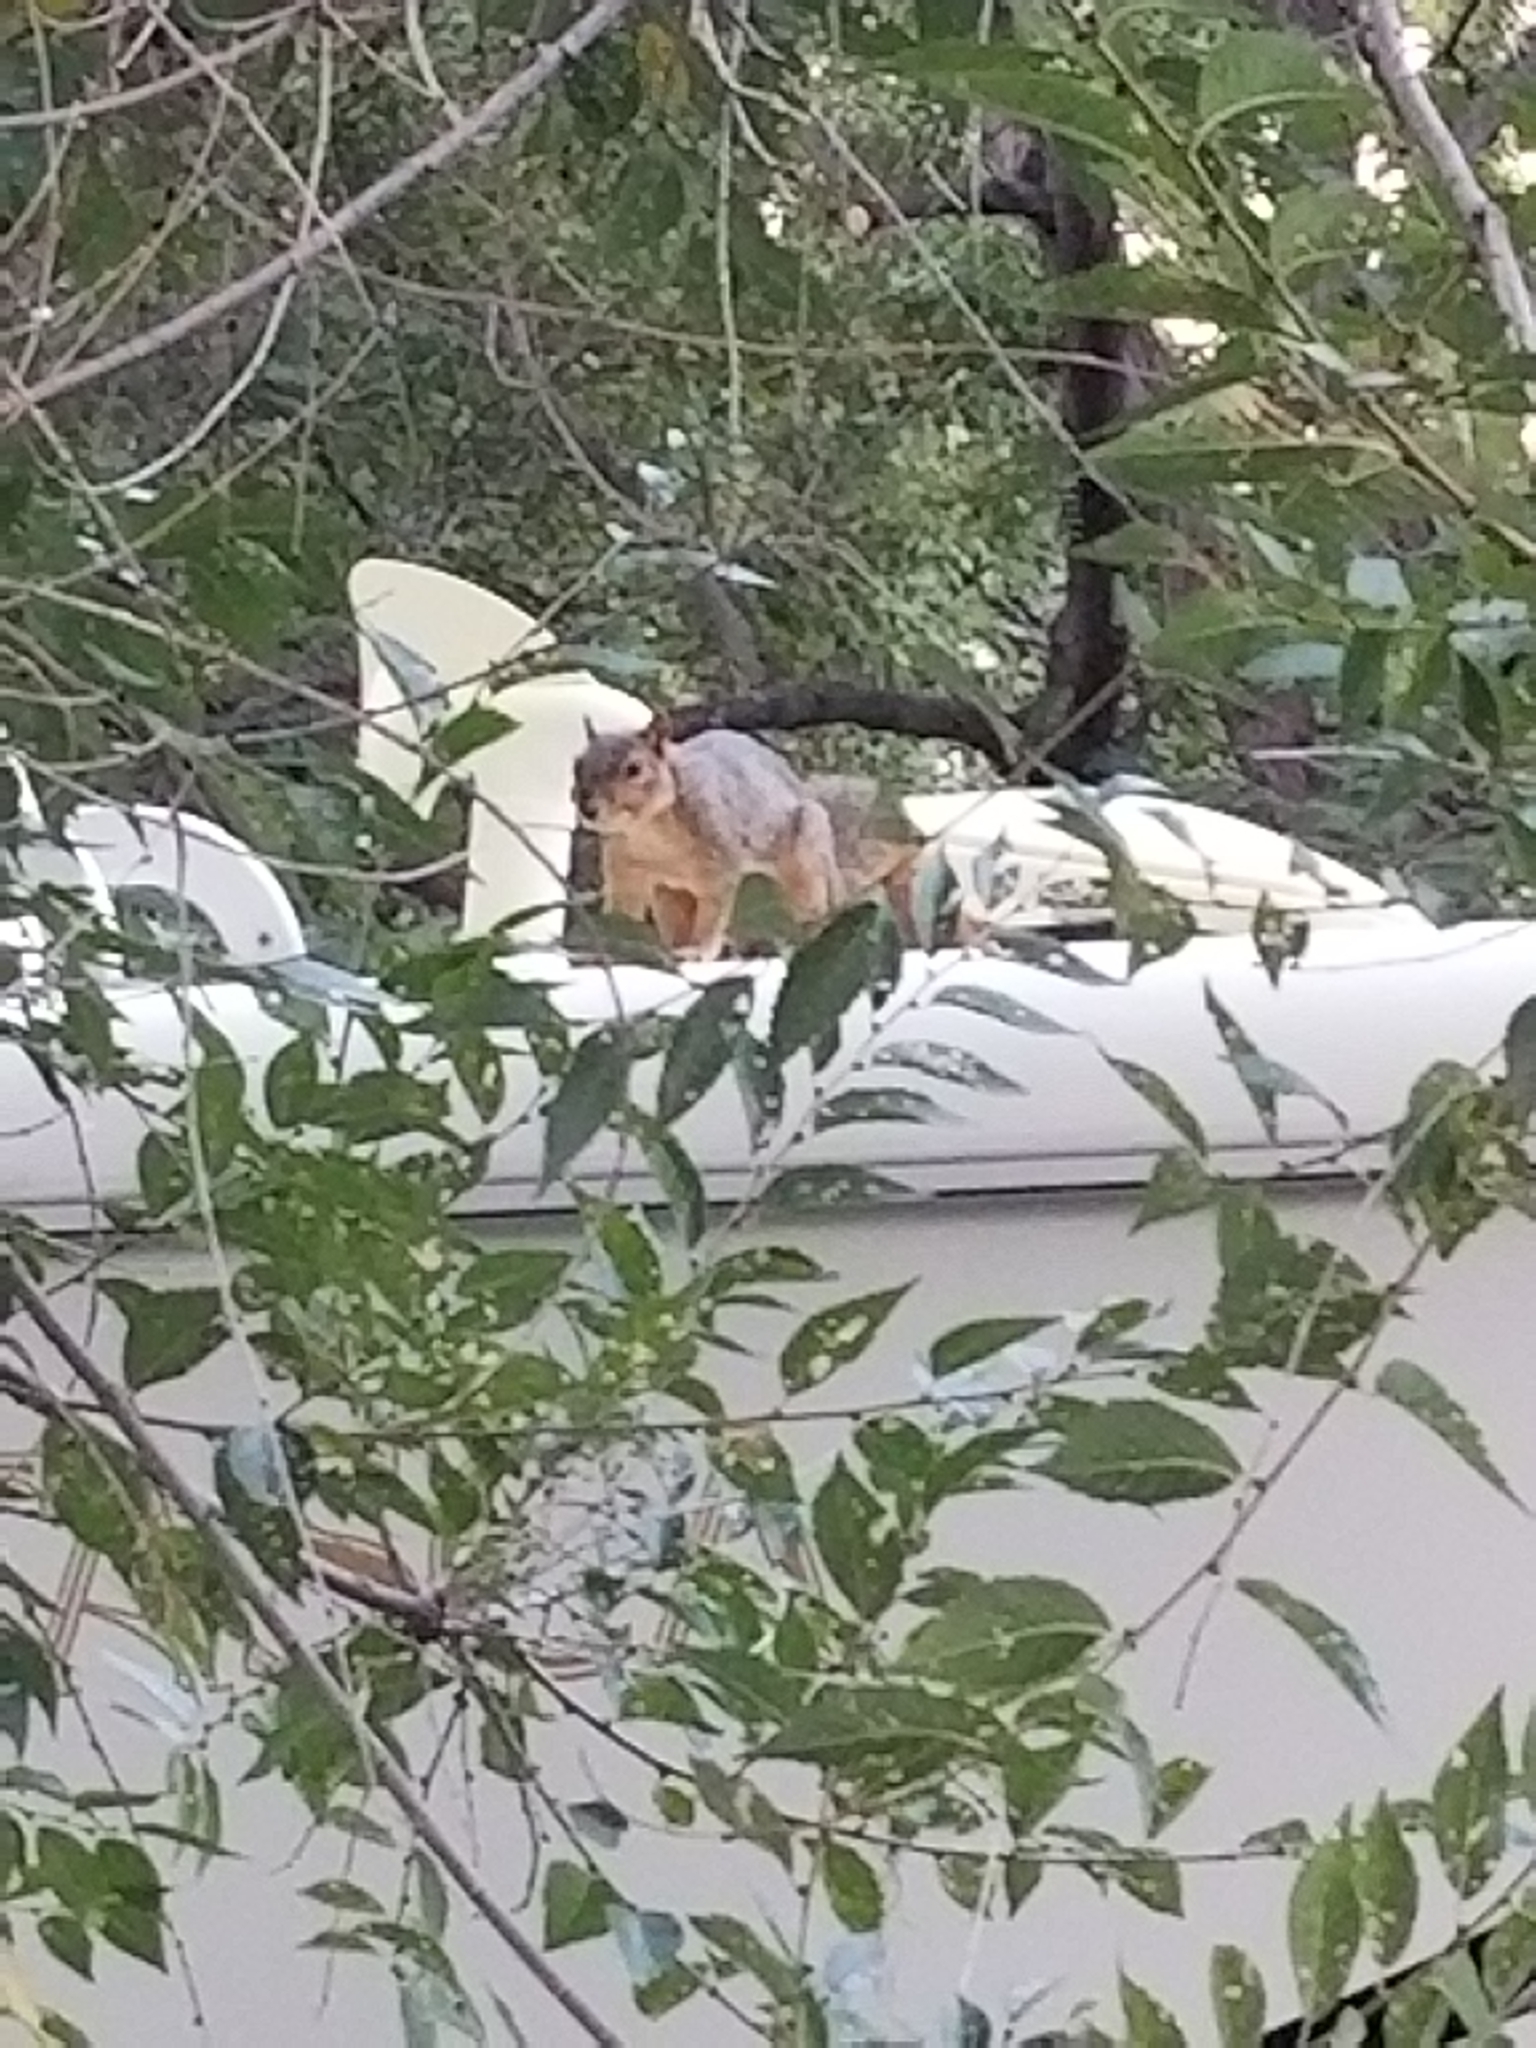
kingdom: Animalia
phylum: Chordata
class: Mammalia
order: Rodentia
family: Sciuridae
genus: Sciurus
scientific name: Sciurus niger
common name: Fox squirrel
